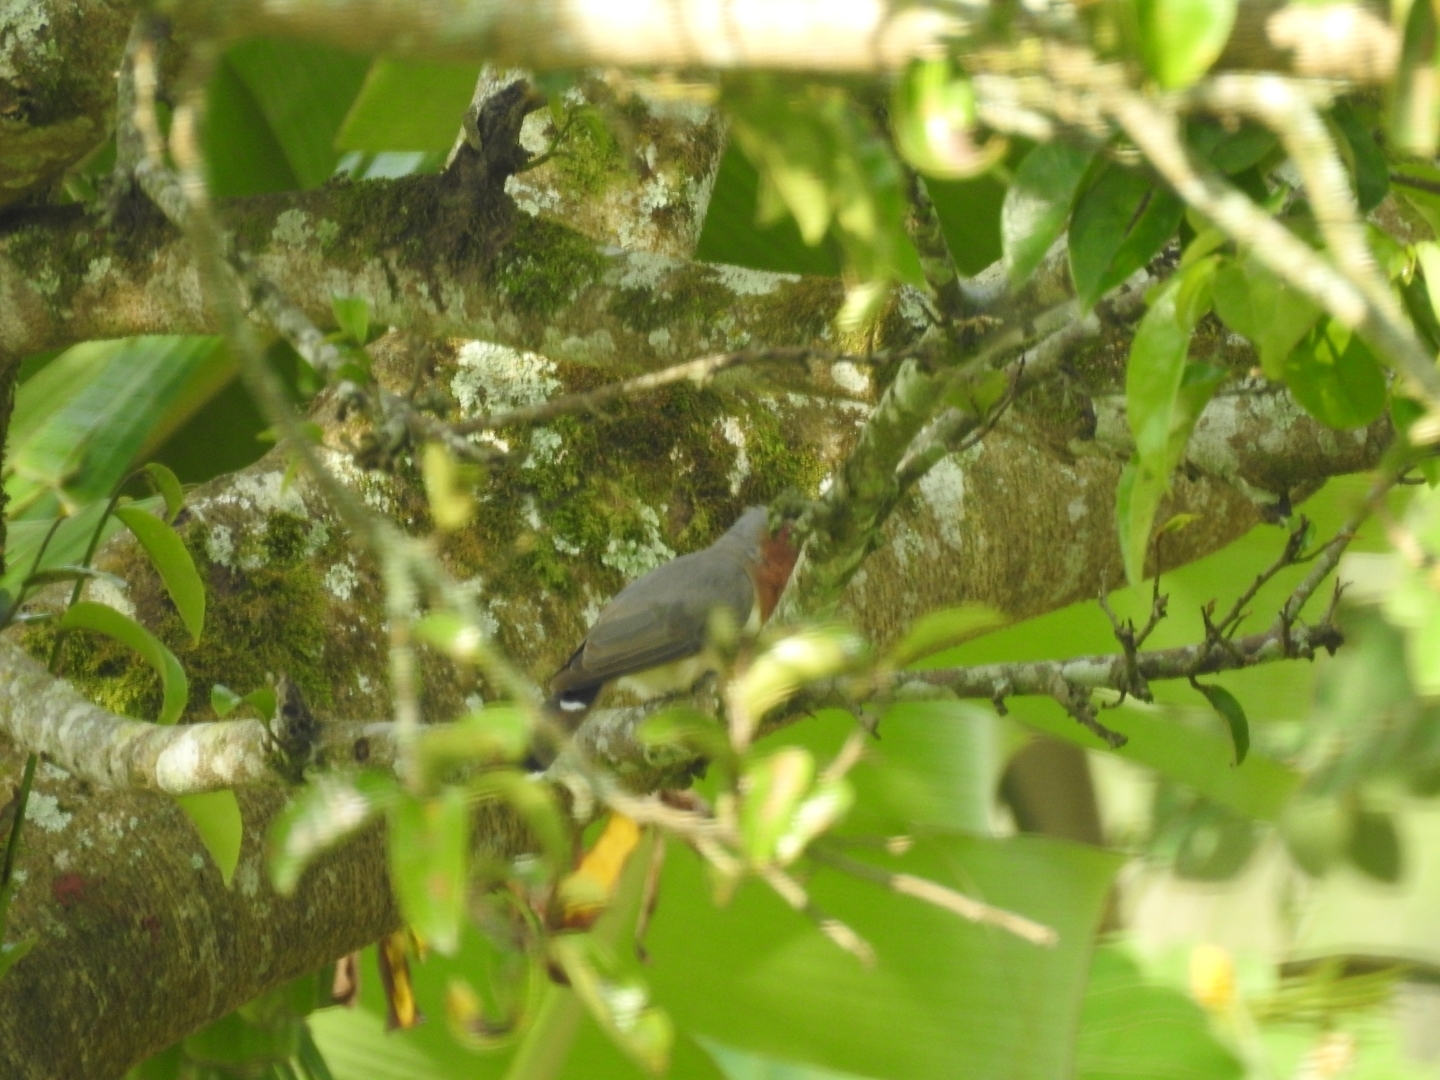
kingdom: Animalia
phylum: Chordata
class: Aves
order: Cuculiformes
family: Cuculidae
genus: Coccyzus
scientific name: Coccyzus pumilus
